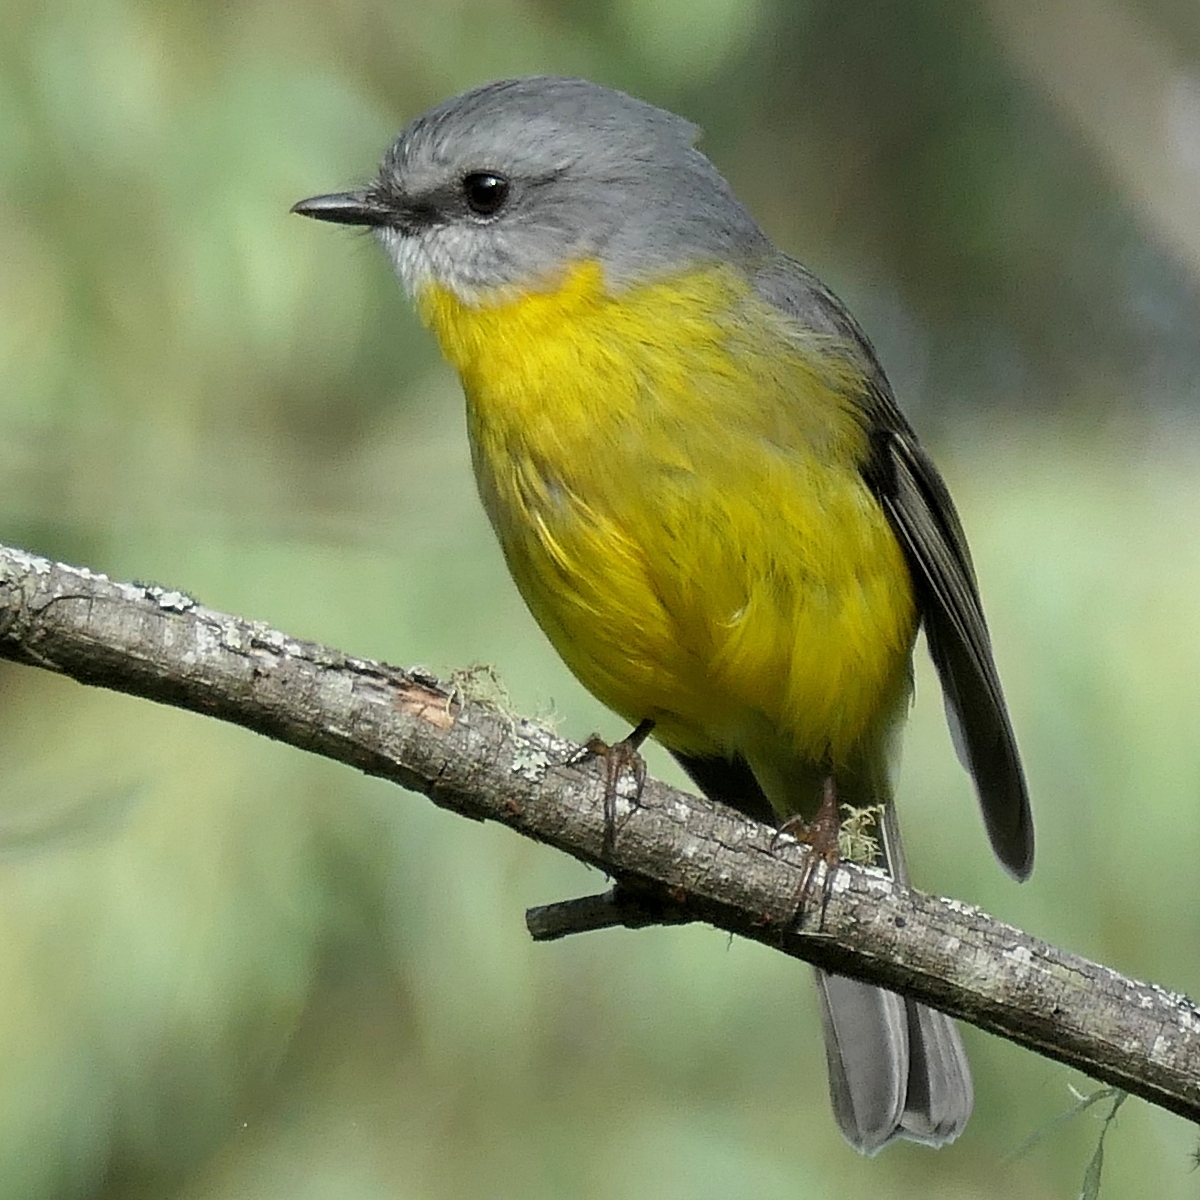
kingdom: Animalia
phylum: Chordata
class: Aves
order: Passeriformes
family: Petroicidae
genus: Eopsaltria
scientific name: Eopsaltria australis
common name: Eastern yellow robin
